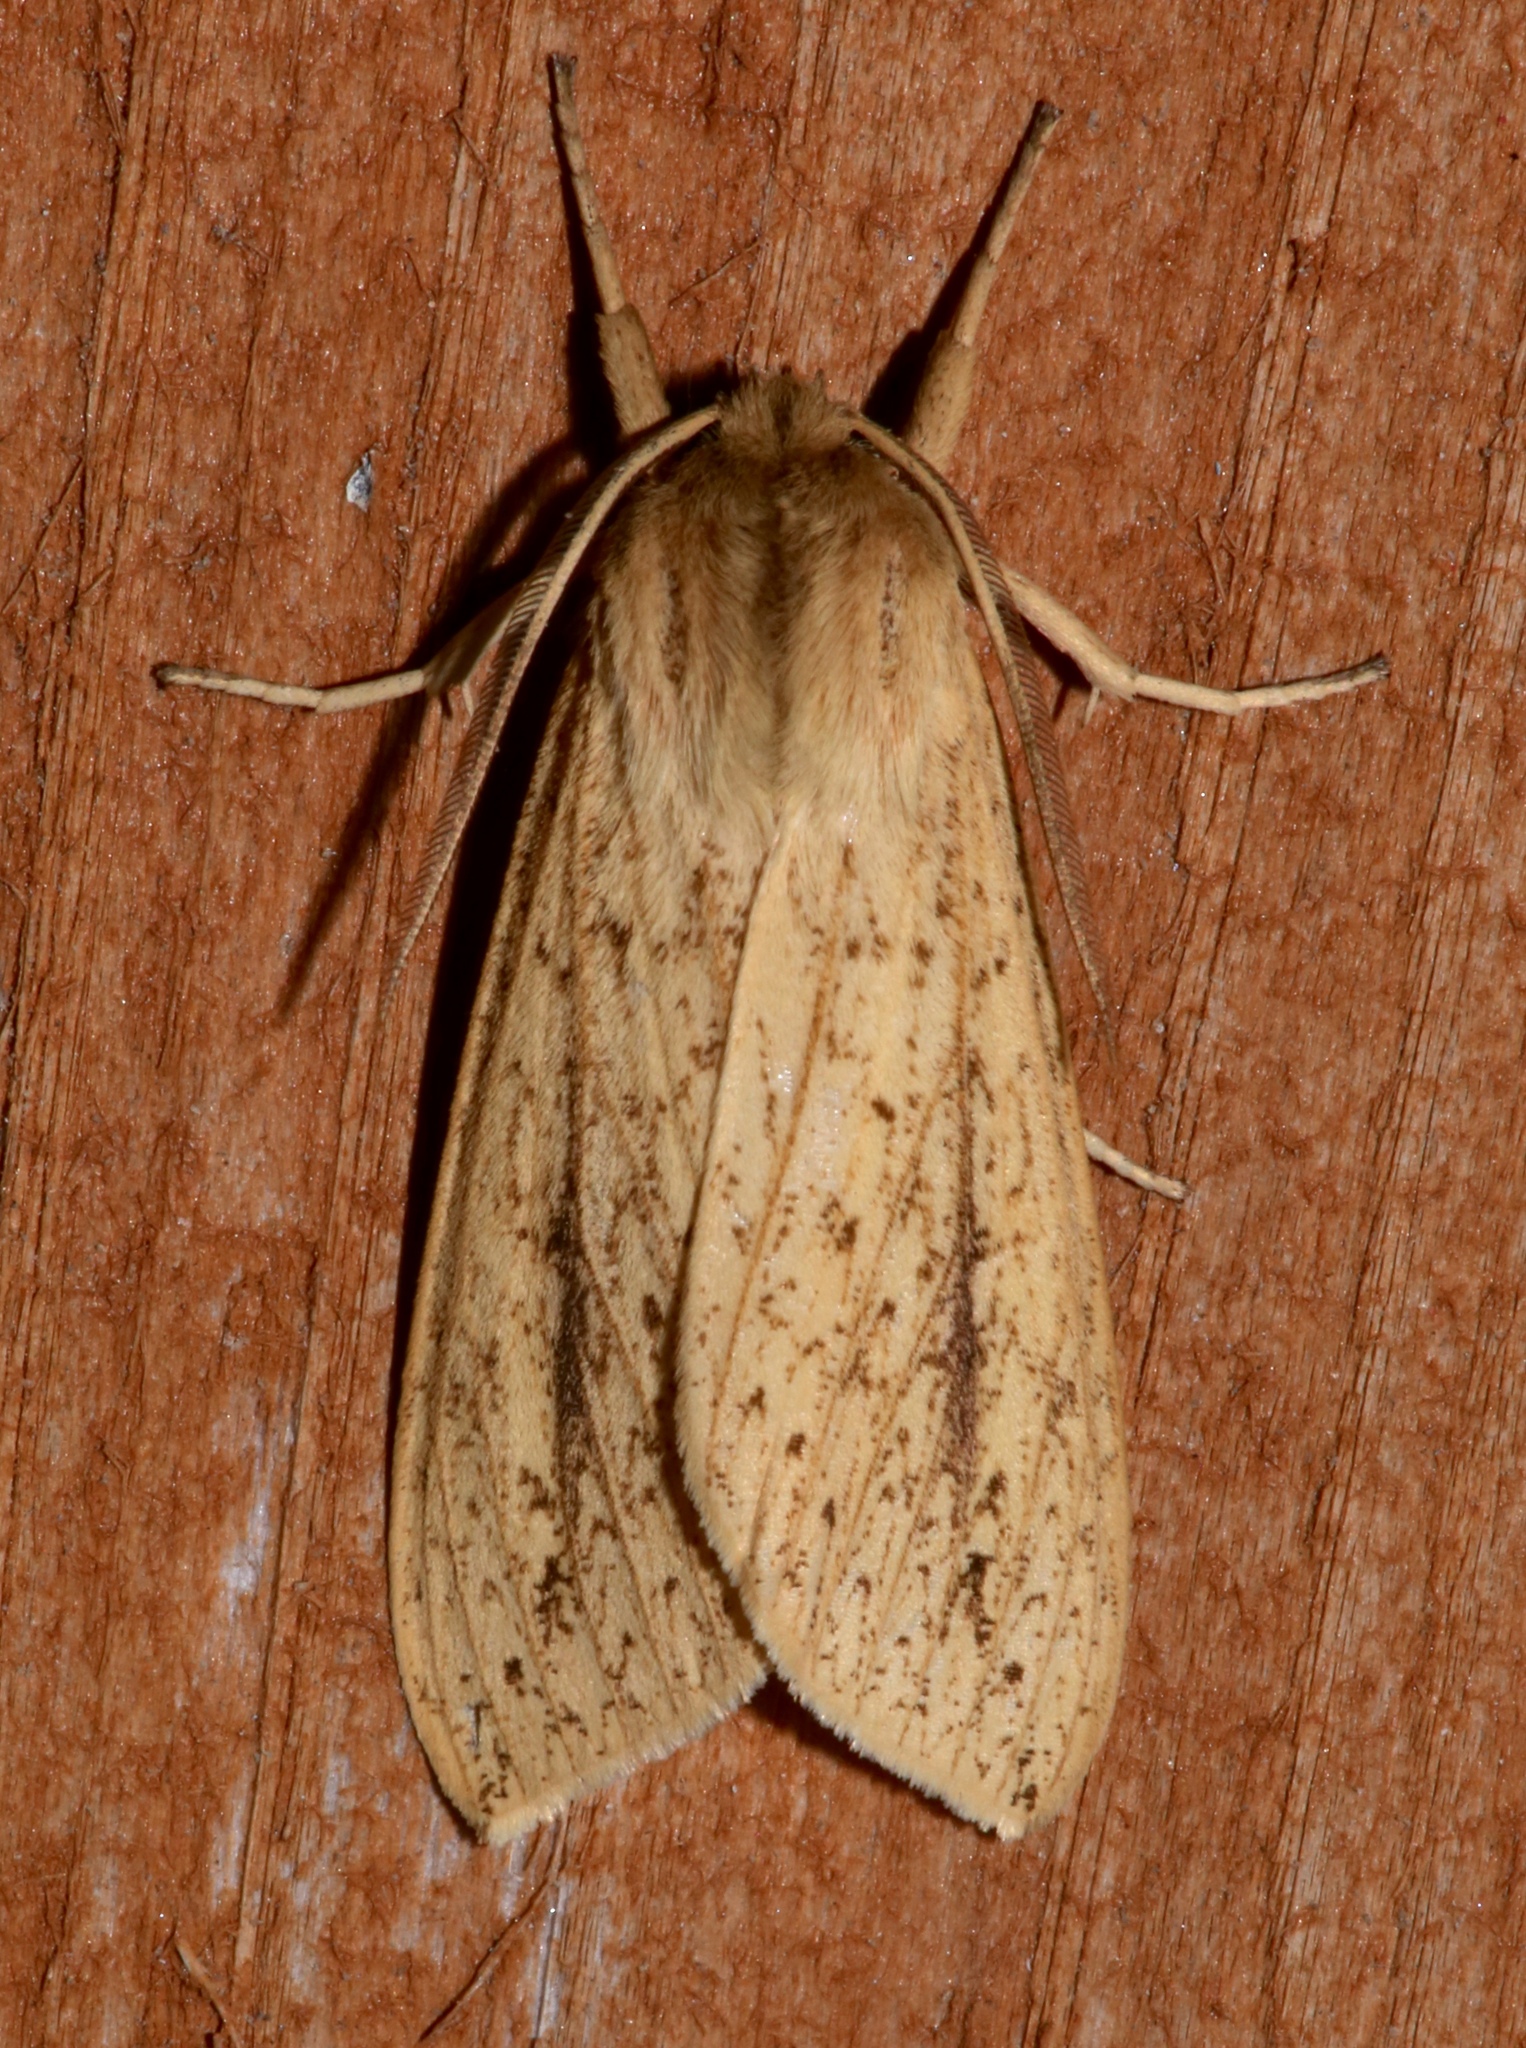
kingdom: Animalia
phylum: Arthropoda
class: Insecta
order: Lepidoptera
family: Erebidae
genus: Leucanopsis
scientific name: Leucanopsis longa
